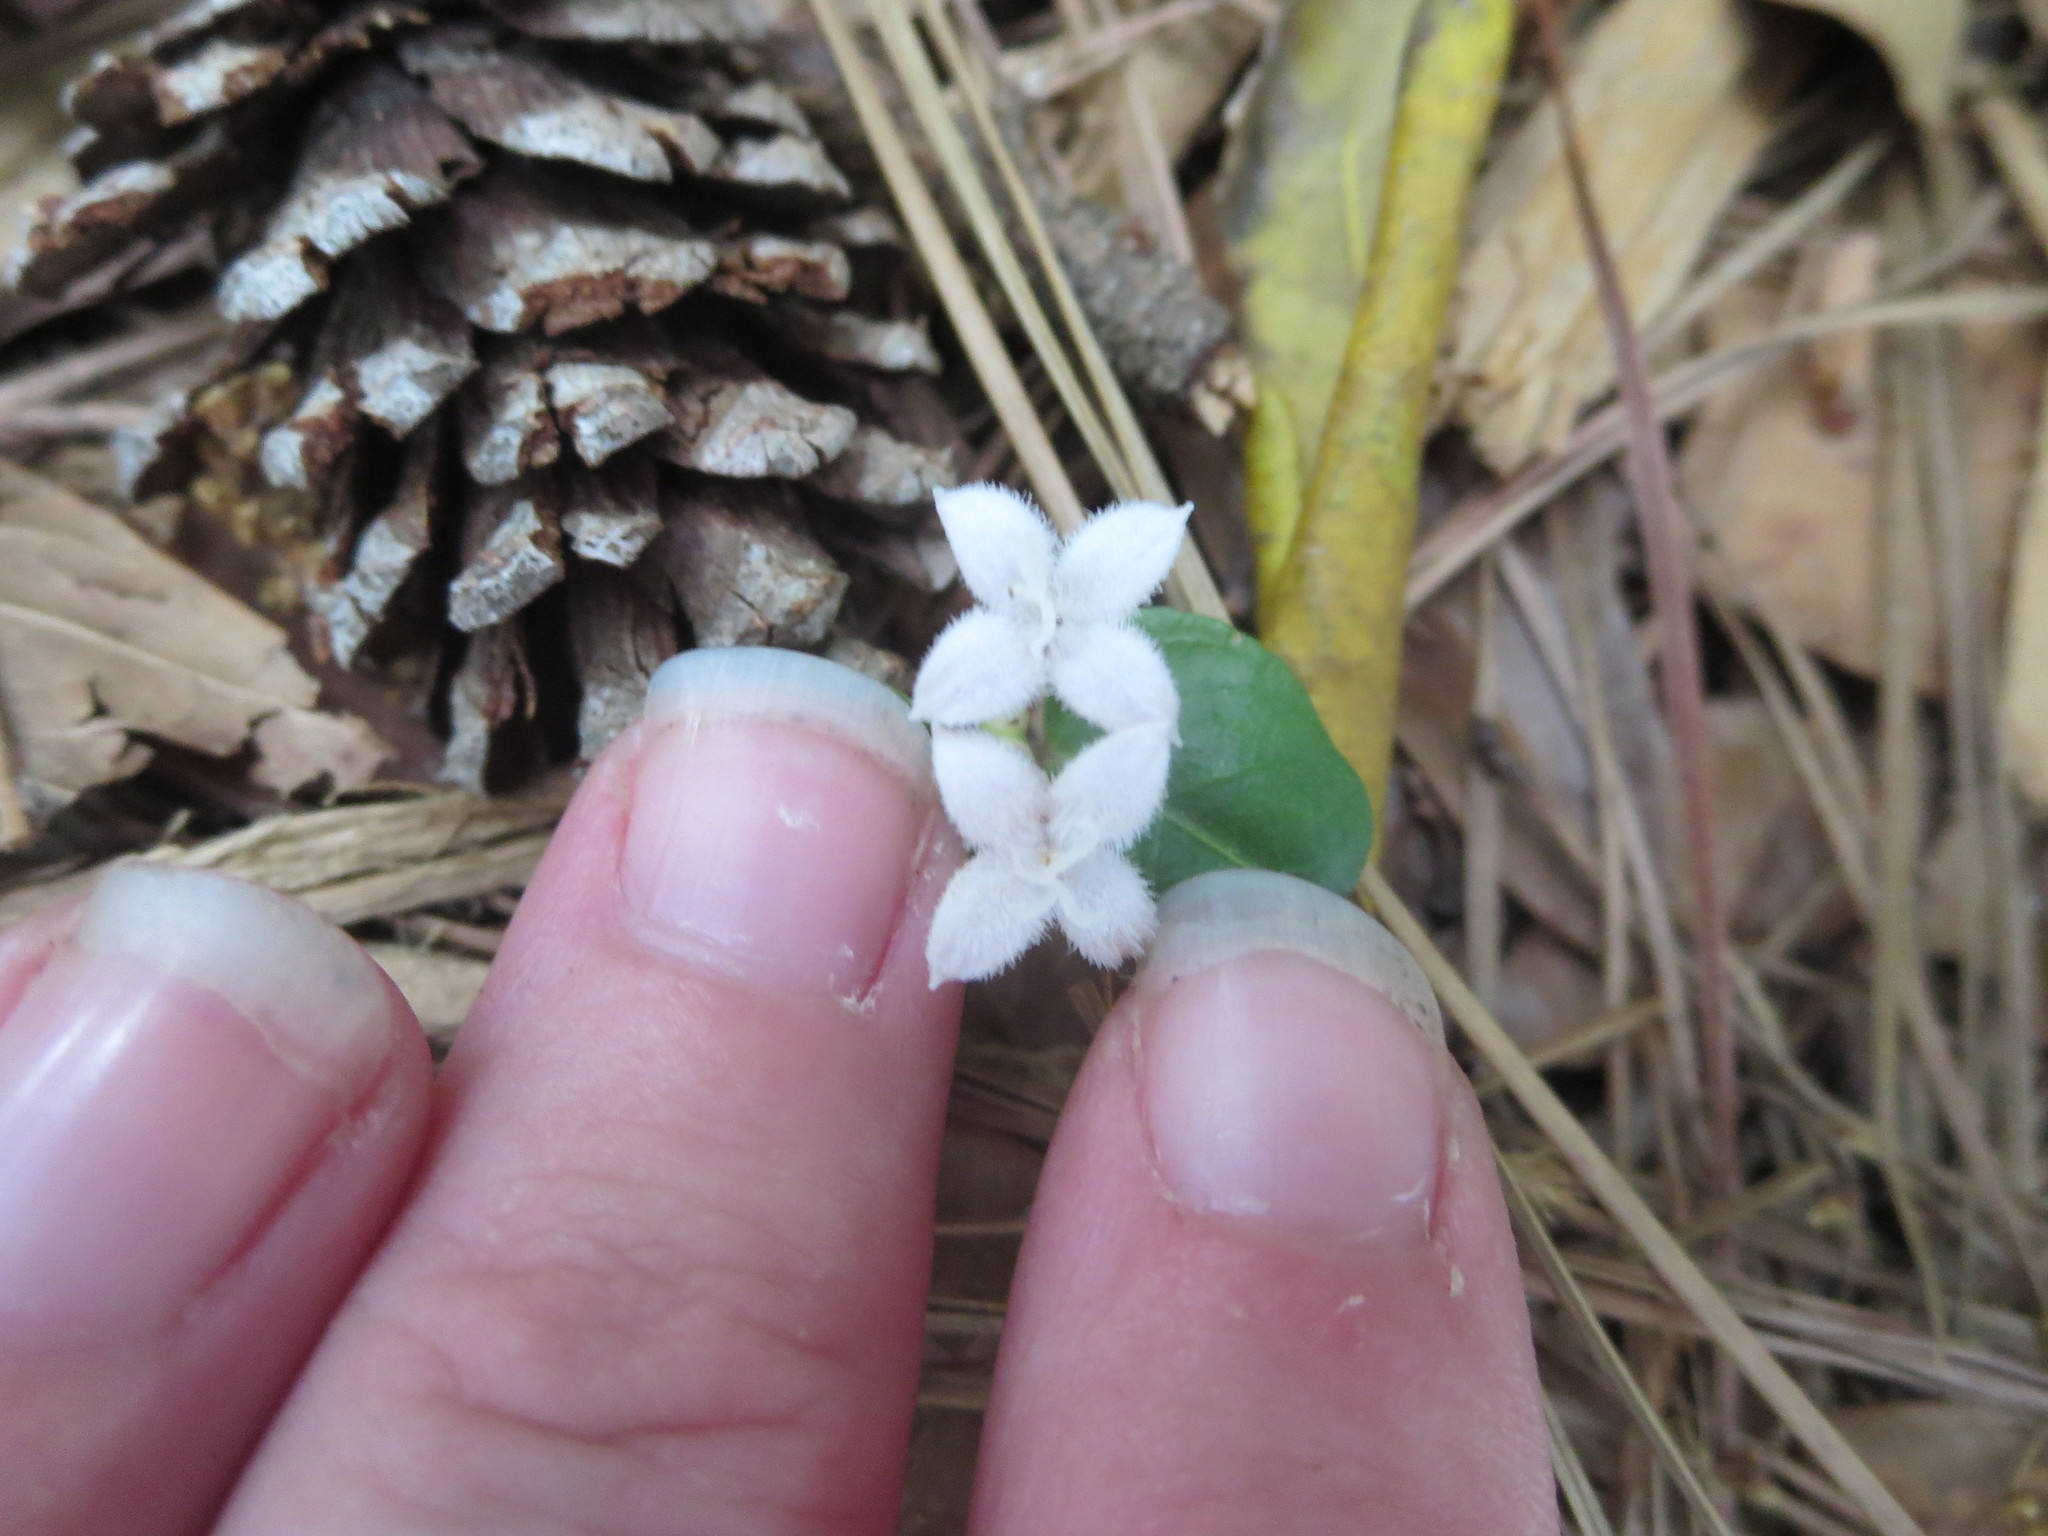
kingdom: Plantae
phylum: Tracheophyta
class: Magnoliopsida
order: Gentianales
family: Rubiaceae
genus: Mitchella
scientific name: Mitchella repens
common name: Partridge-berry
